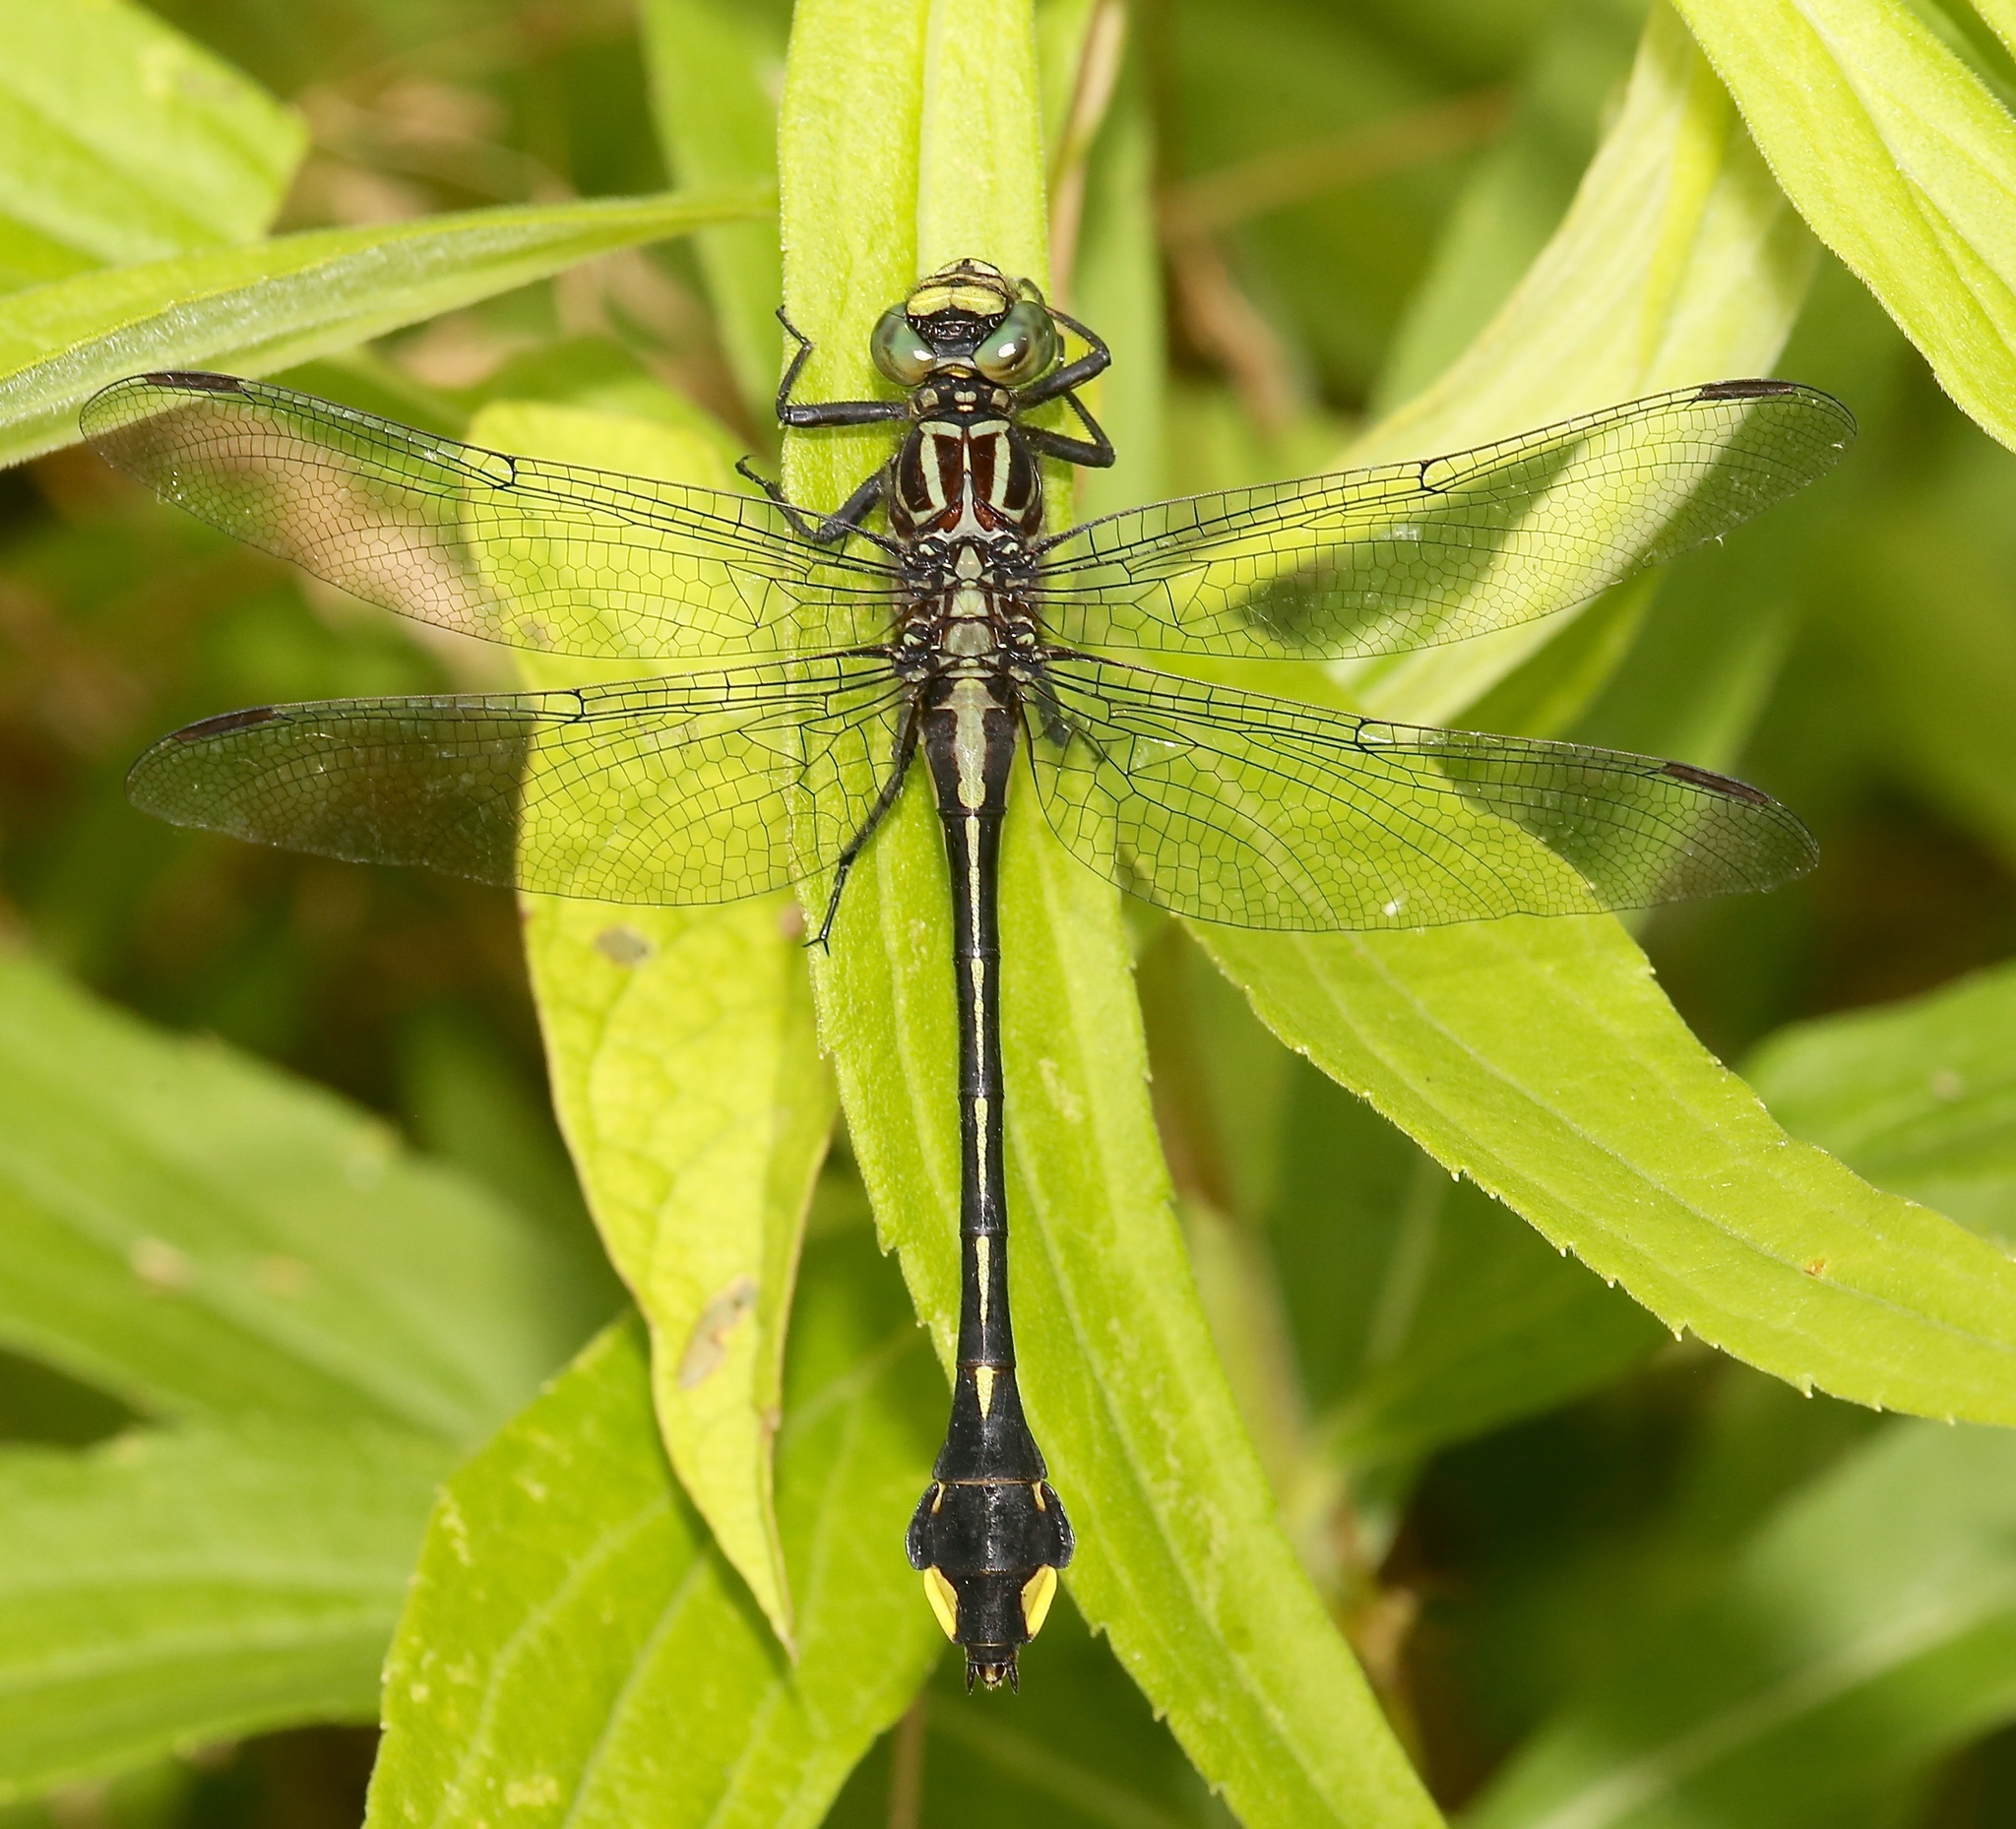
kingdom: Animalia
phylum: Arthropoda
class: Insecta
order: Odonata
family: Gomphidae
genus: Gomphurus
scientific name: Gomphurus vastus
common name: Cobra clubtail
